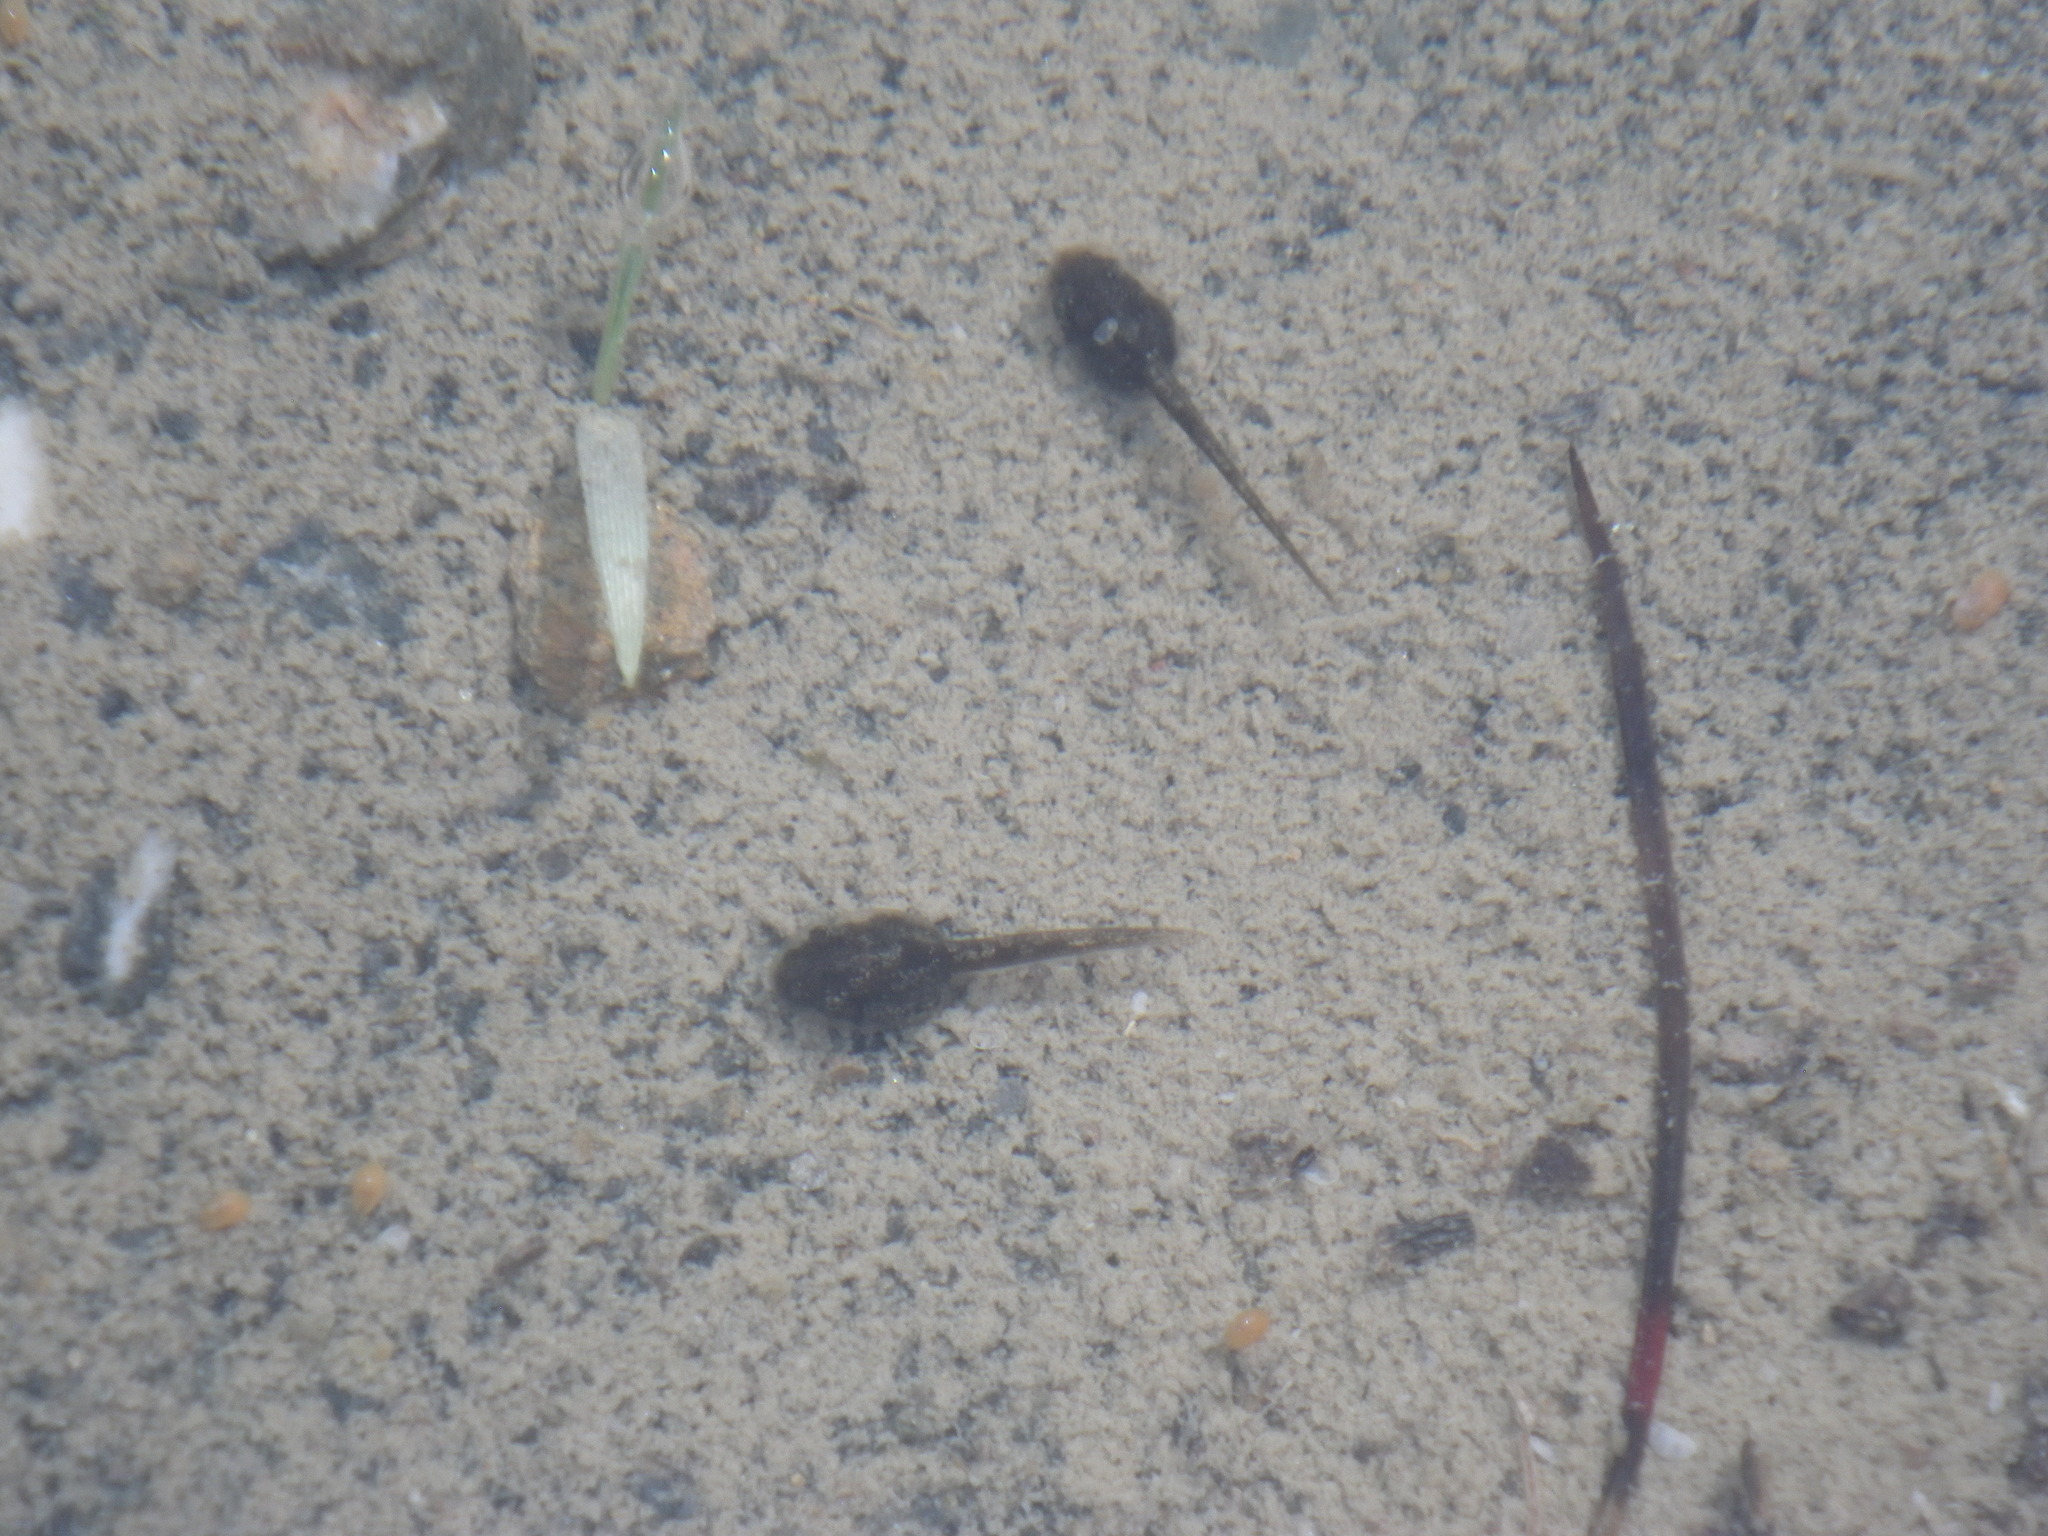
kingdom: Animalia
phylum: Chordata
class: Amphibia
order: Anura
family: Hylidae
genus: Pseudacris
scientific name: Pseudacris regilla
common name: Pacific chorus frog
